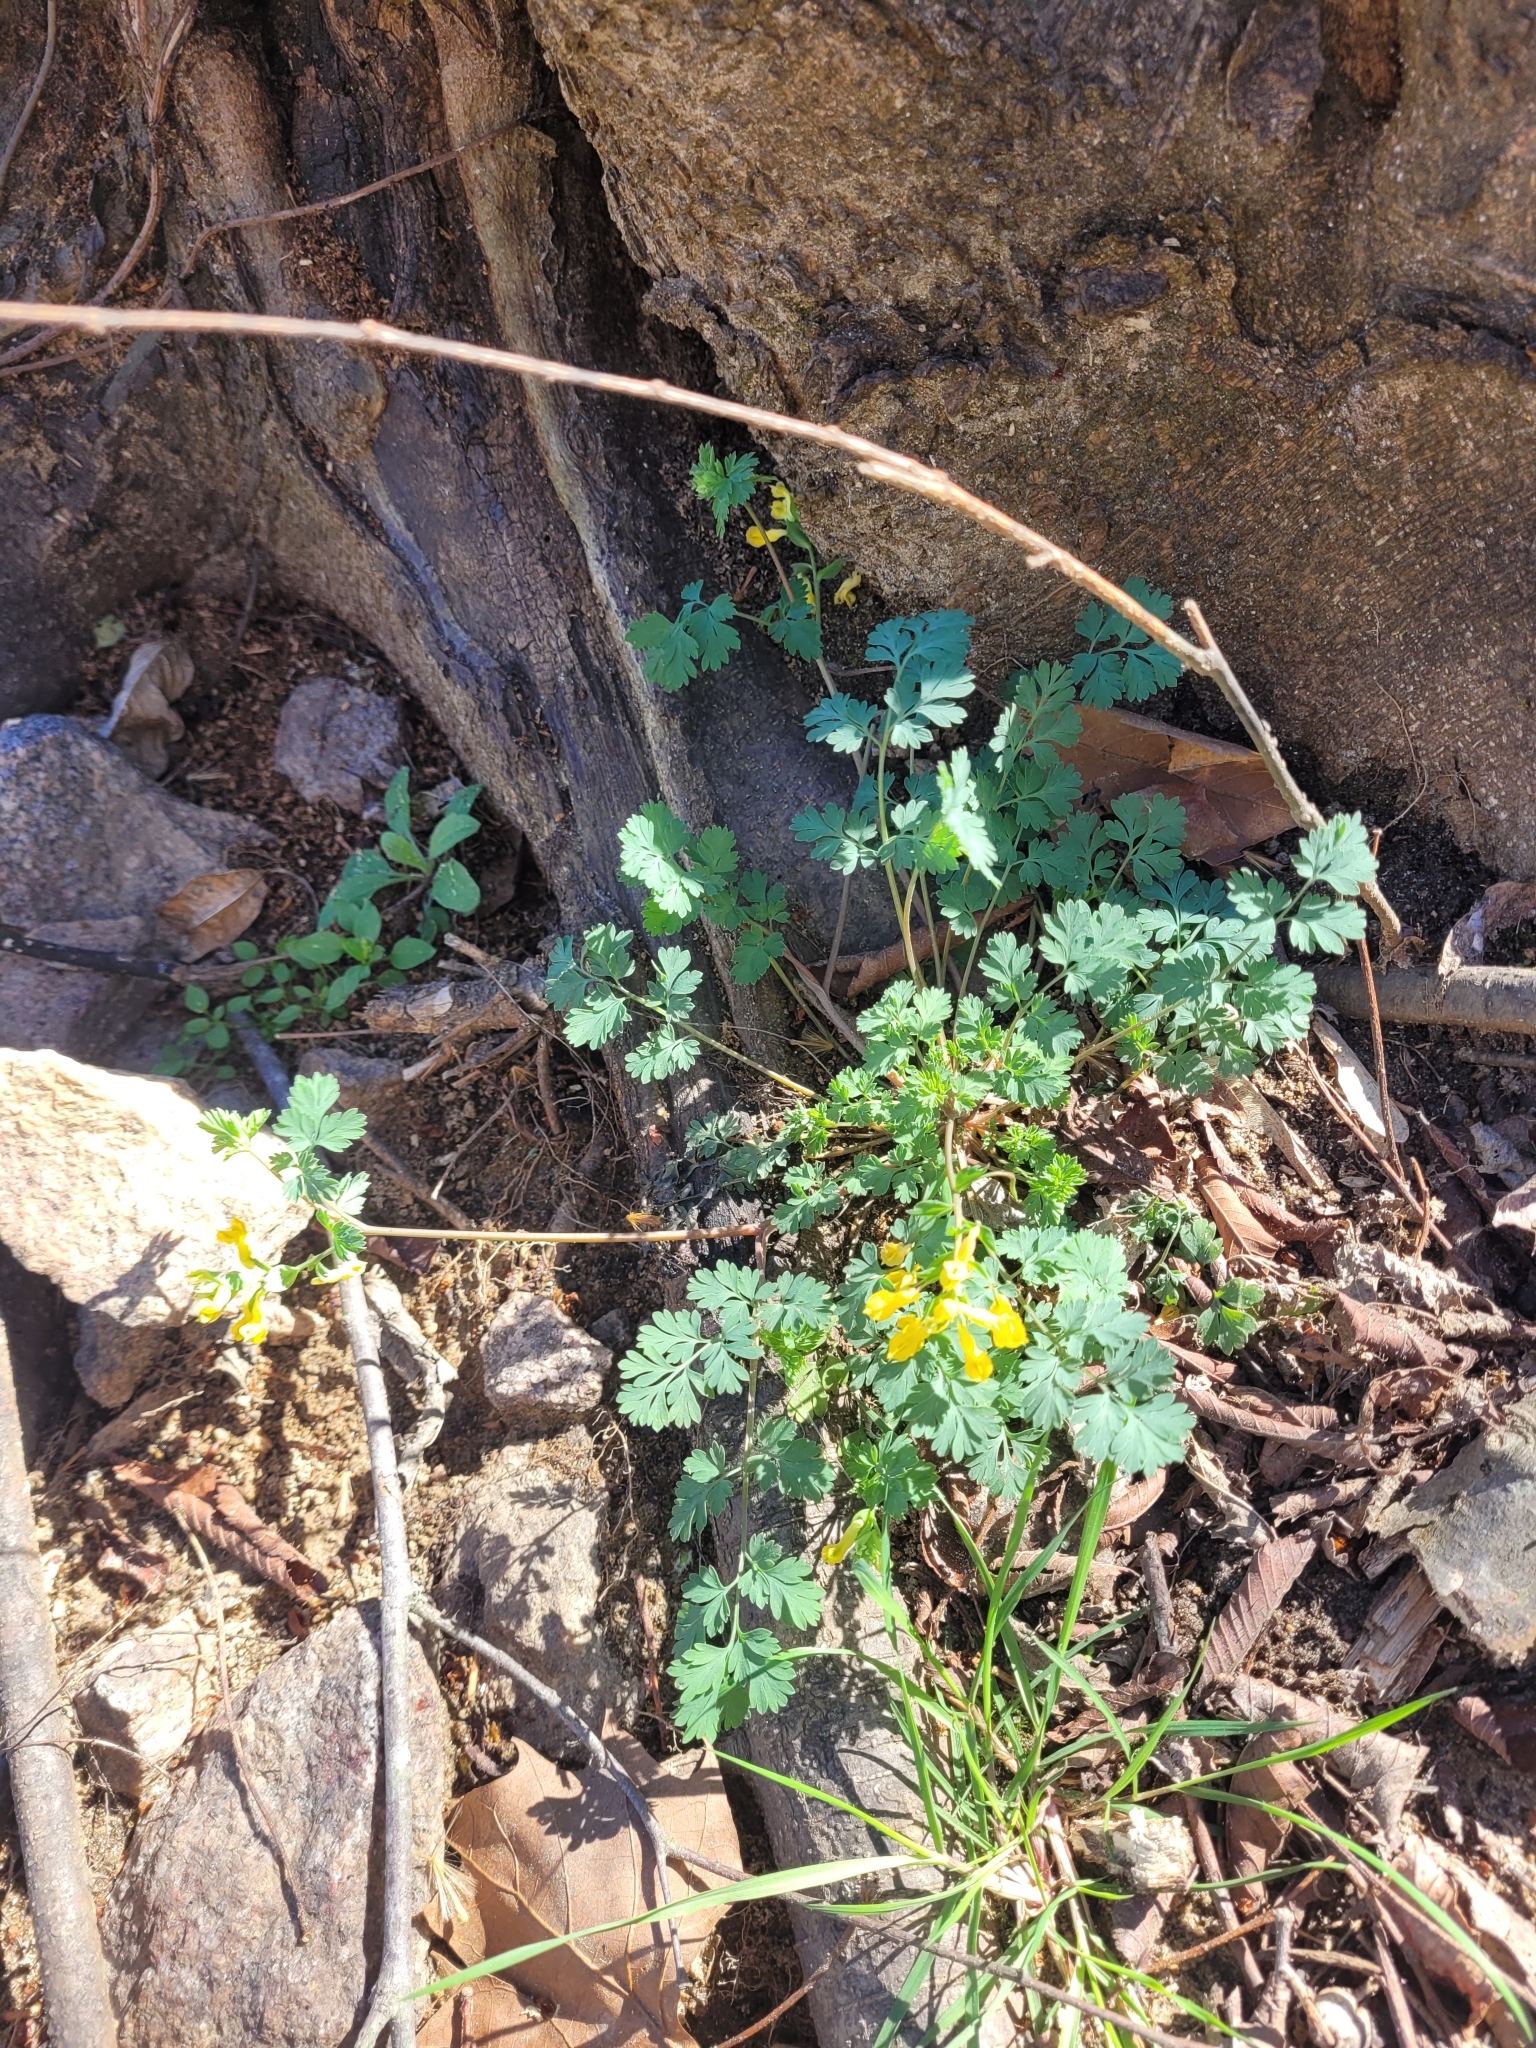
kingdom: Plantae
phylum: Tracheophyta
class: Magnoliopsida
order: Ranunculales
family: Papaveraceae
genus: Corydalis
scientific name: Corydalis flavula
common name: Yellow corydalis
